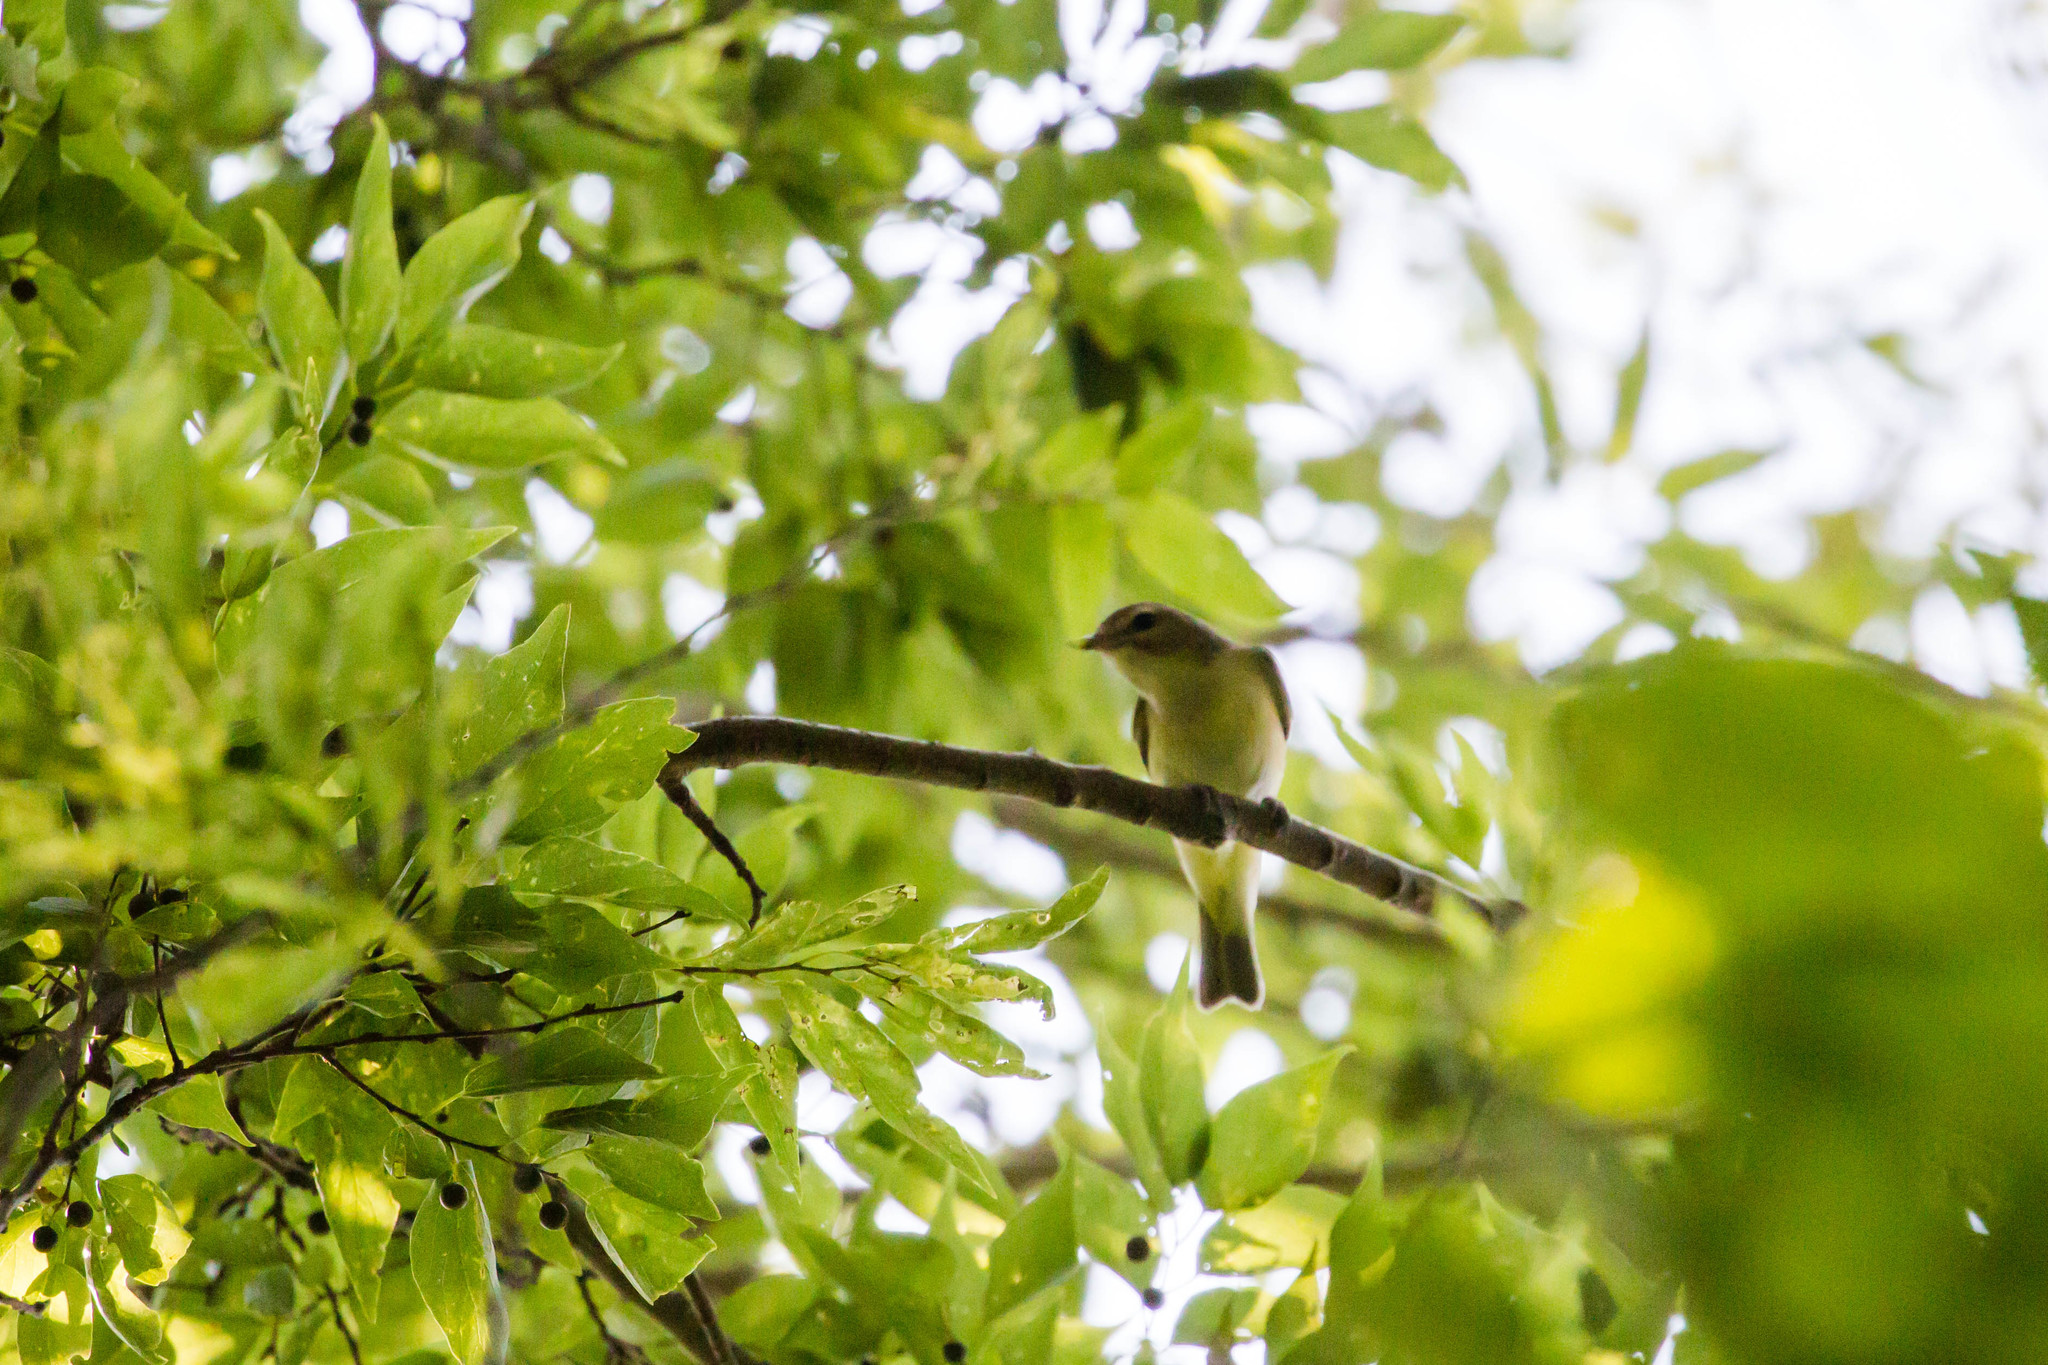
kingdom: Animalia
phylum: Chordata
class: Aves
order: Passeriformes
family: Vireonidae
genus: Vireo
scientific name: Vireo philadelphicus
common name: Philadelphia vireo
